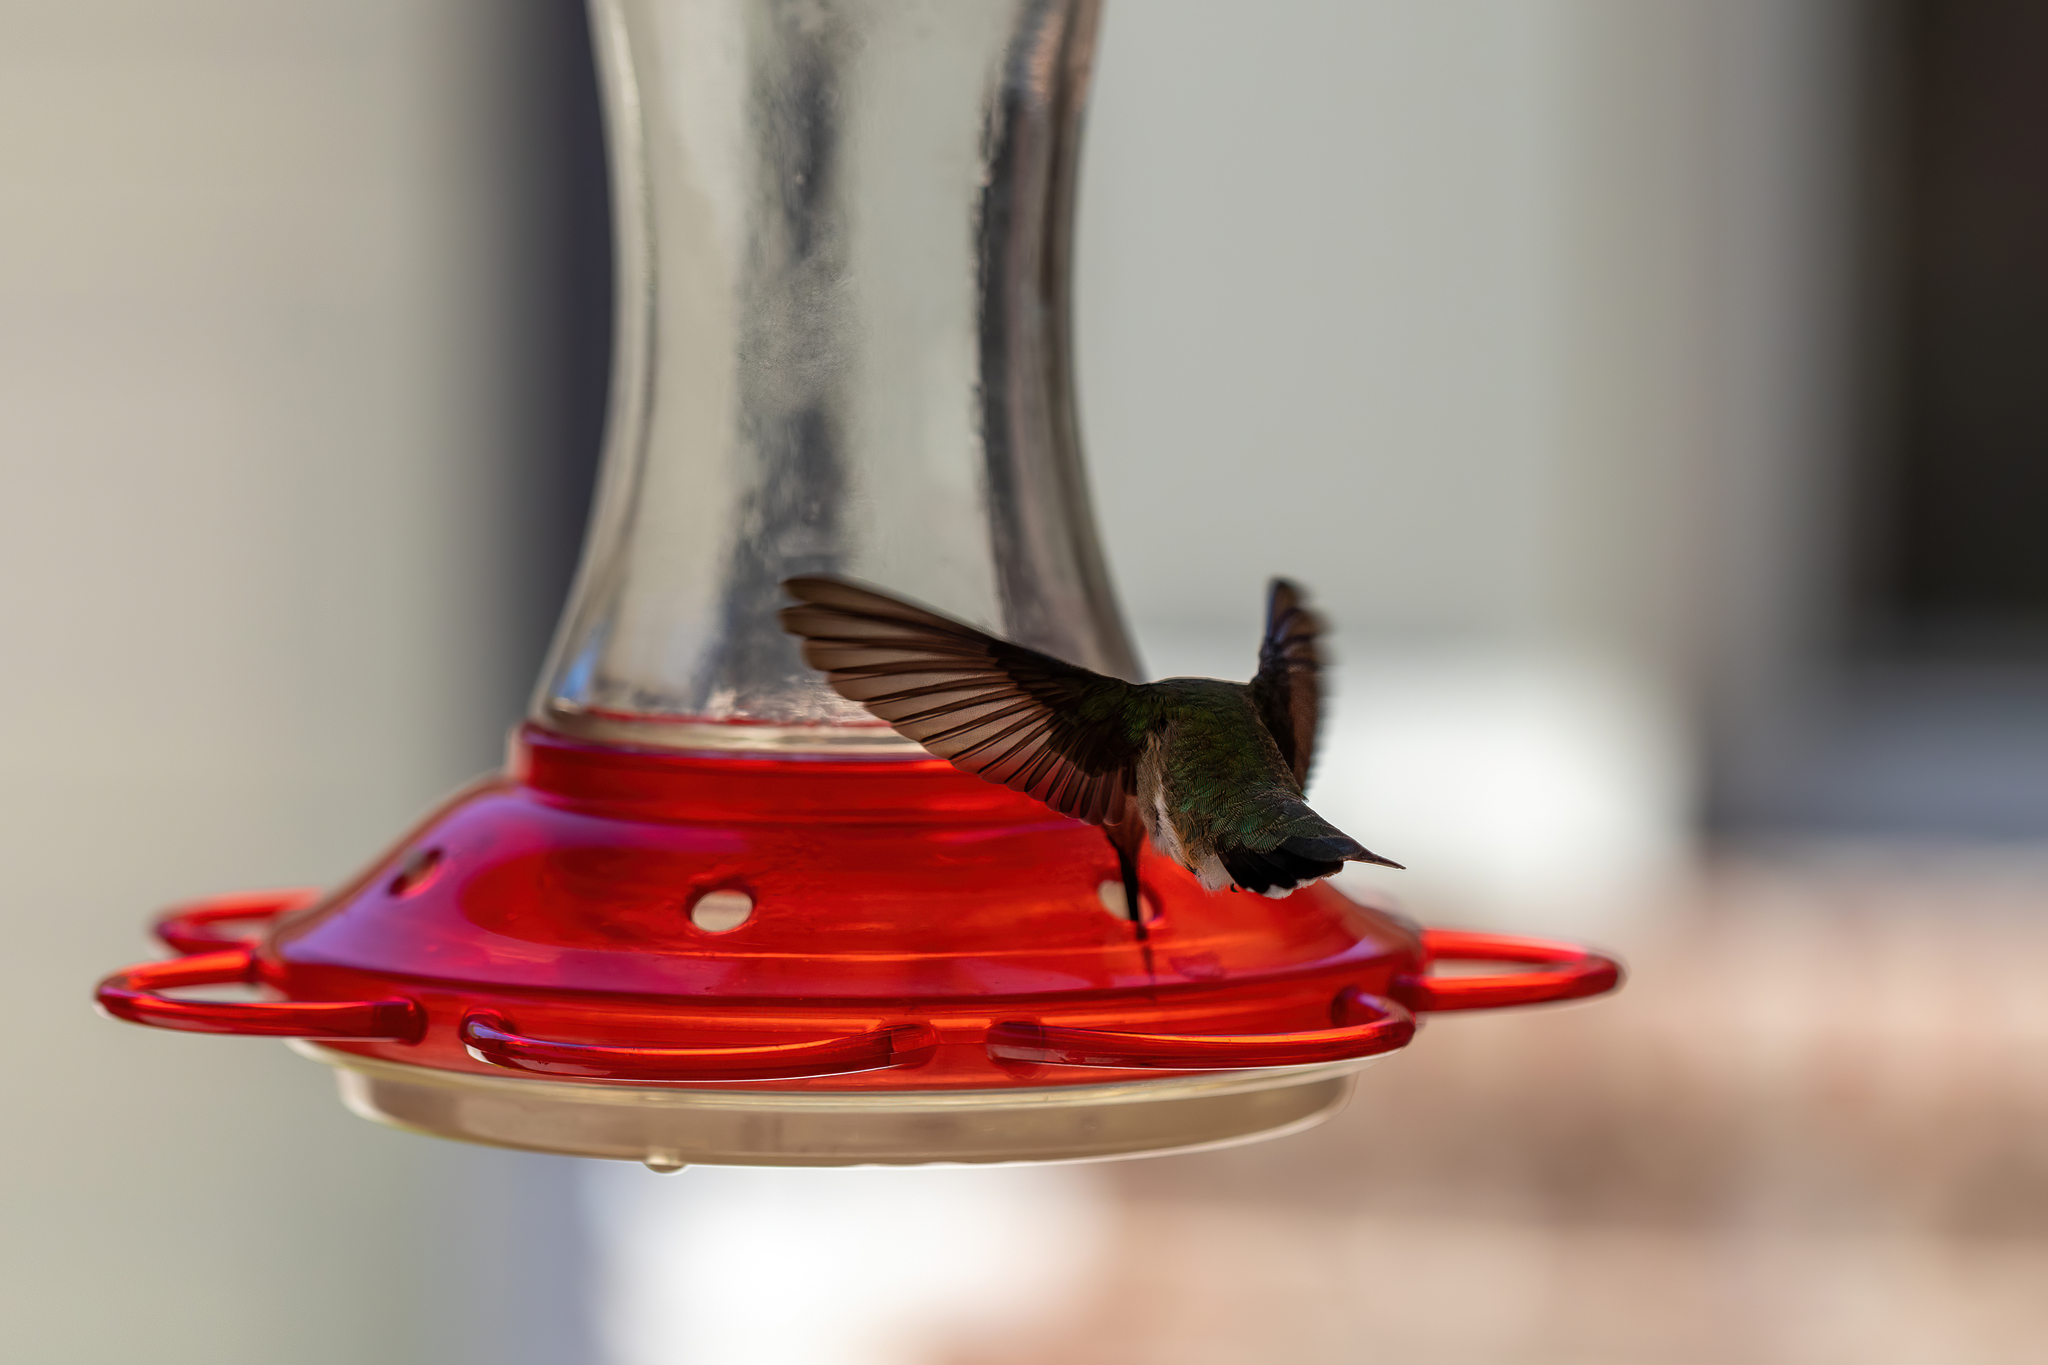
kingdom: Animalia
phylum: Chordata
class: Aves
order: Apodiformes
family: Trochilidae
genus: Calypte
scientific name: Calypte anna
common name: Anna's hummingbird
